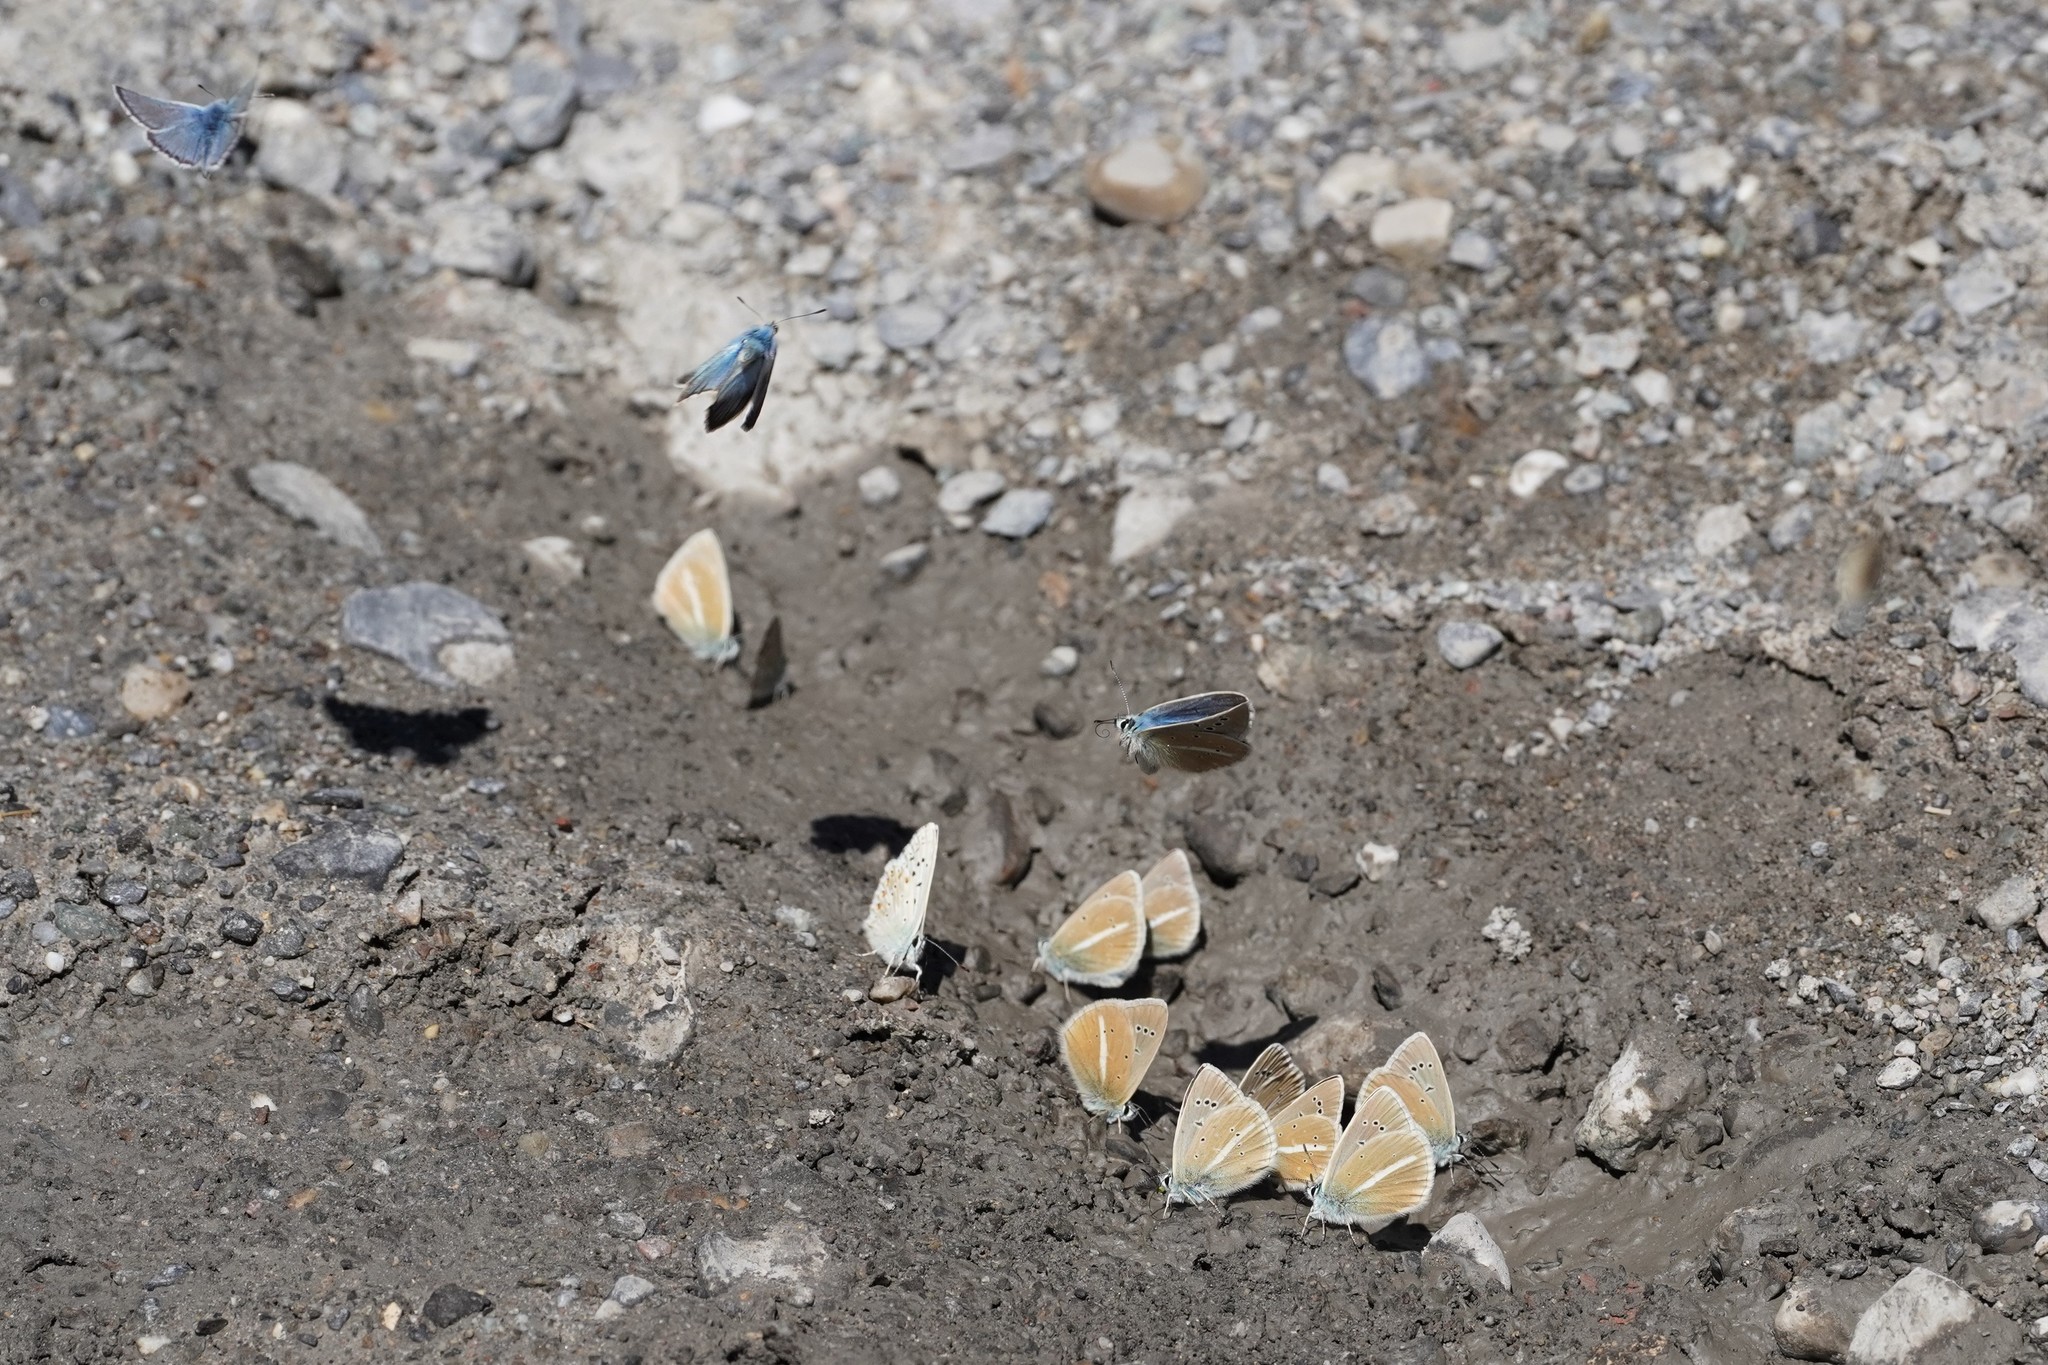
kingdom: Animalia
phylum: Arthropoda
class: Insecta
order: Lepidoptera
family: Lycaenidae
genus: Agrodiaetus
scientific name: Agrodiaetus damon
